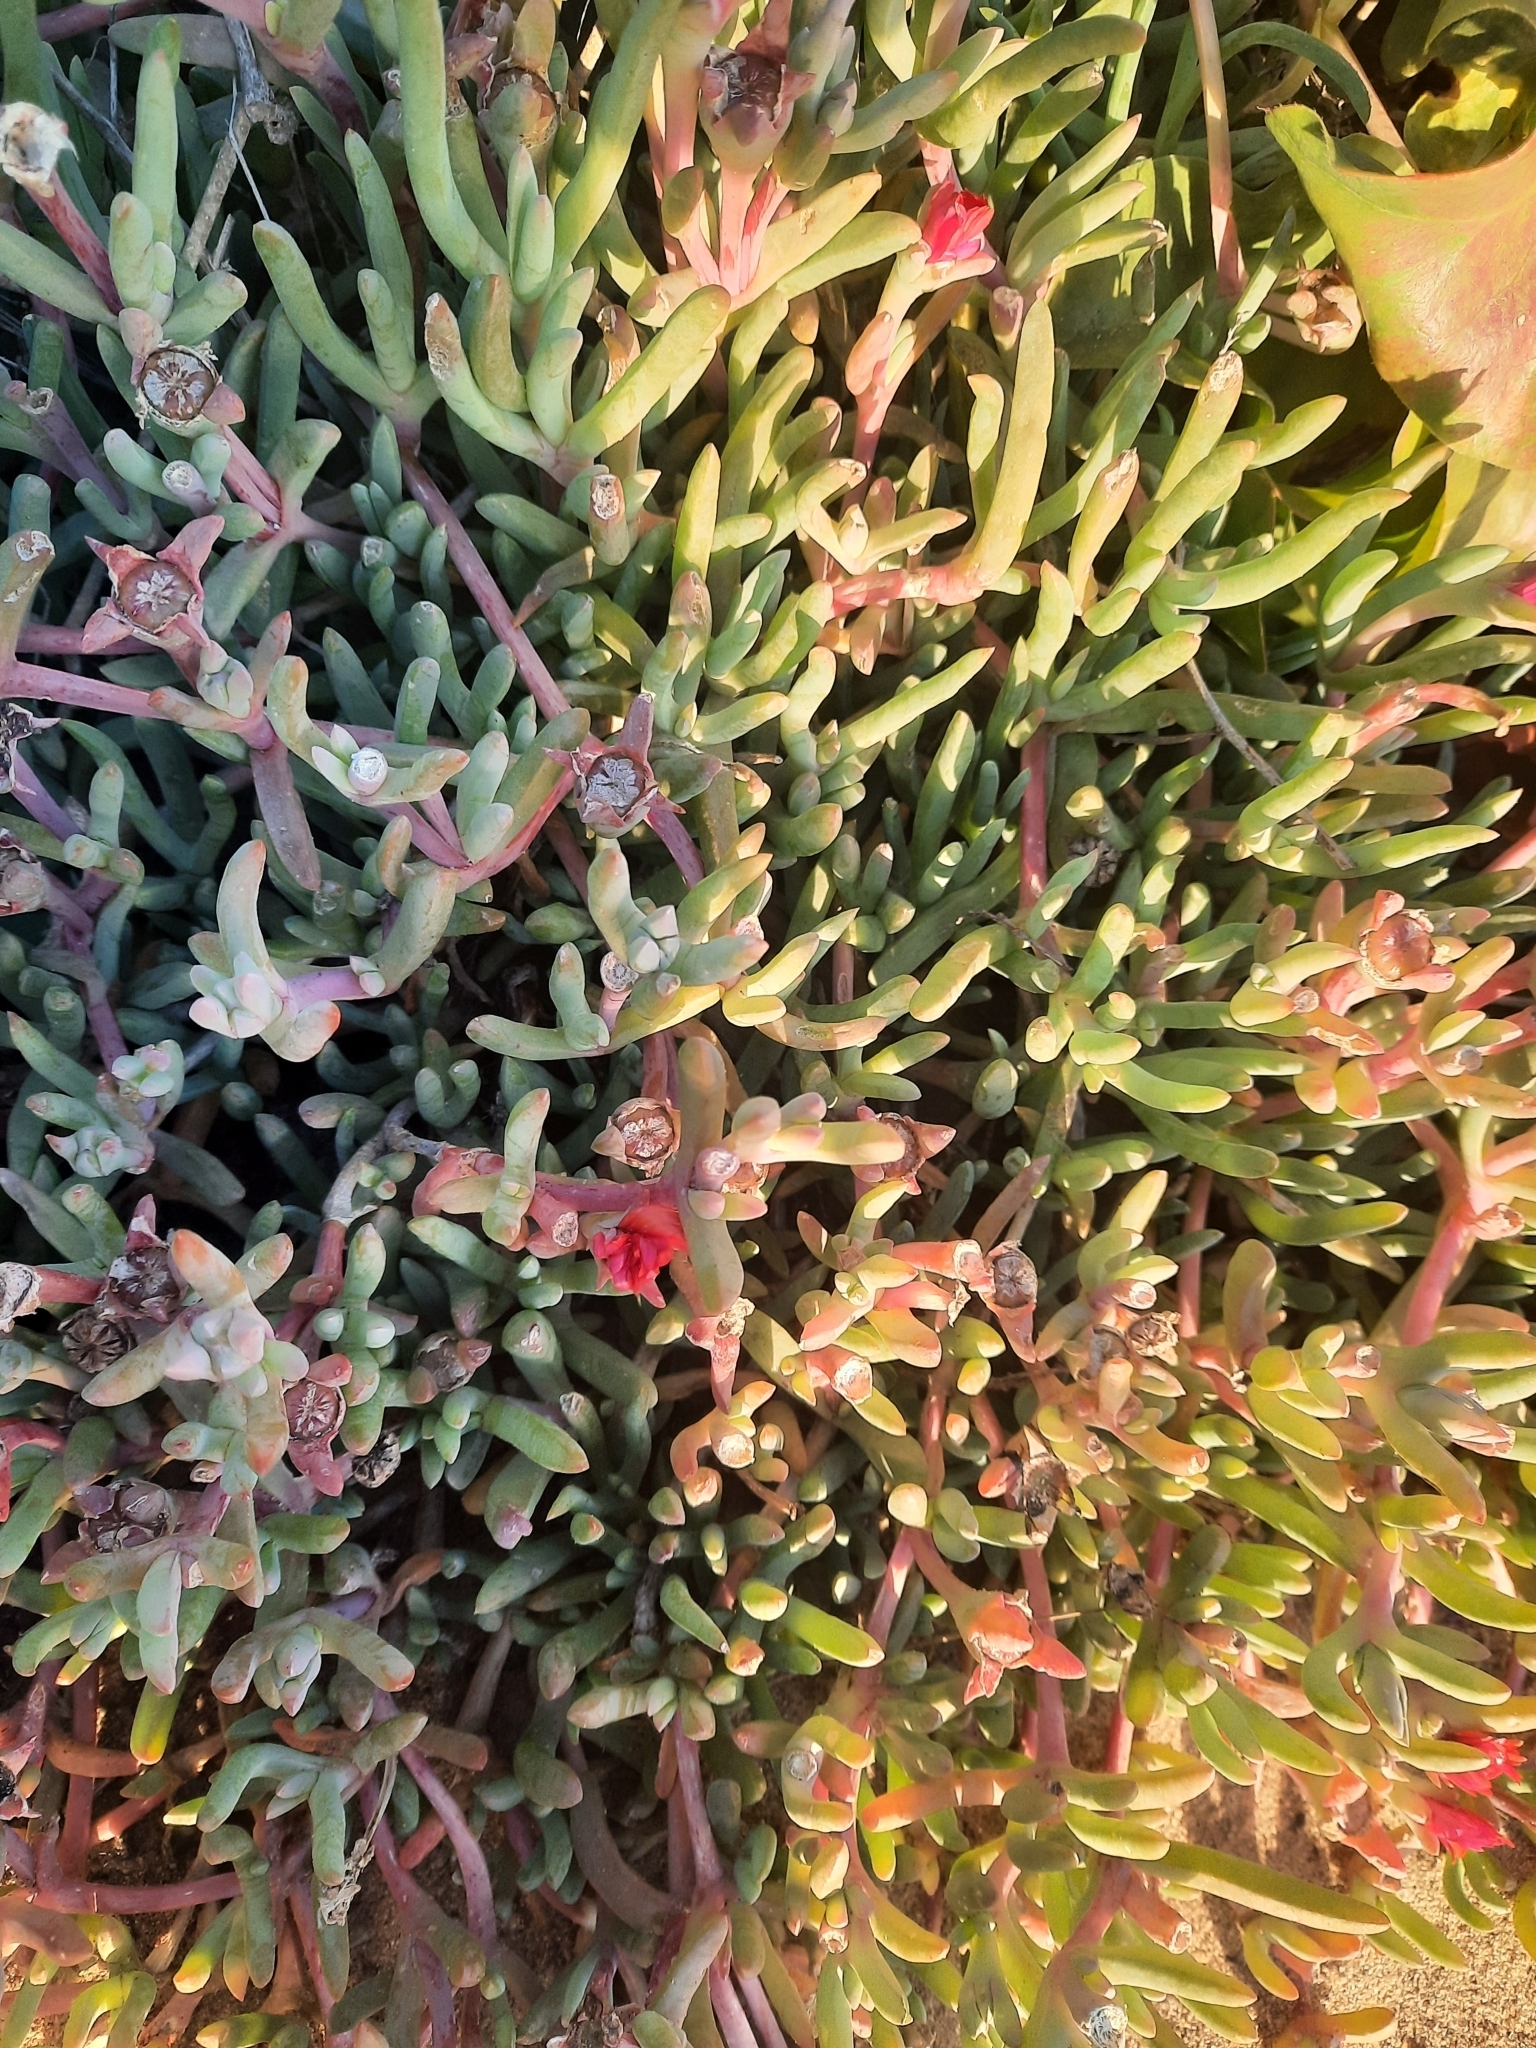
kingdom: Plantae
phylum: Tracheophyta
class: Magnoliopsida
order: Caryophyllales
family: Aizoaceae
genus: Malephora
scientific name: Malephora crocea
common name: Coppery mesemb
